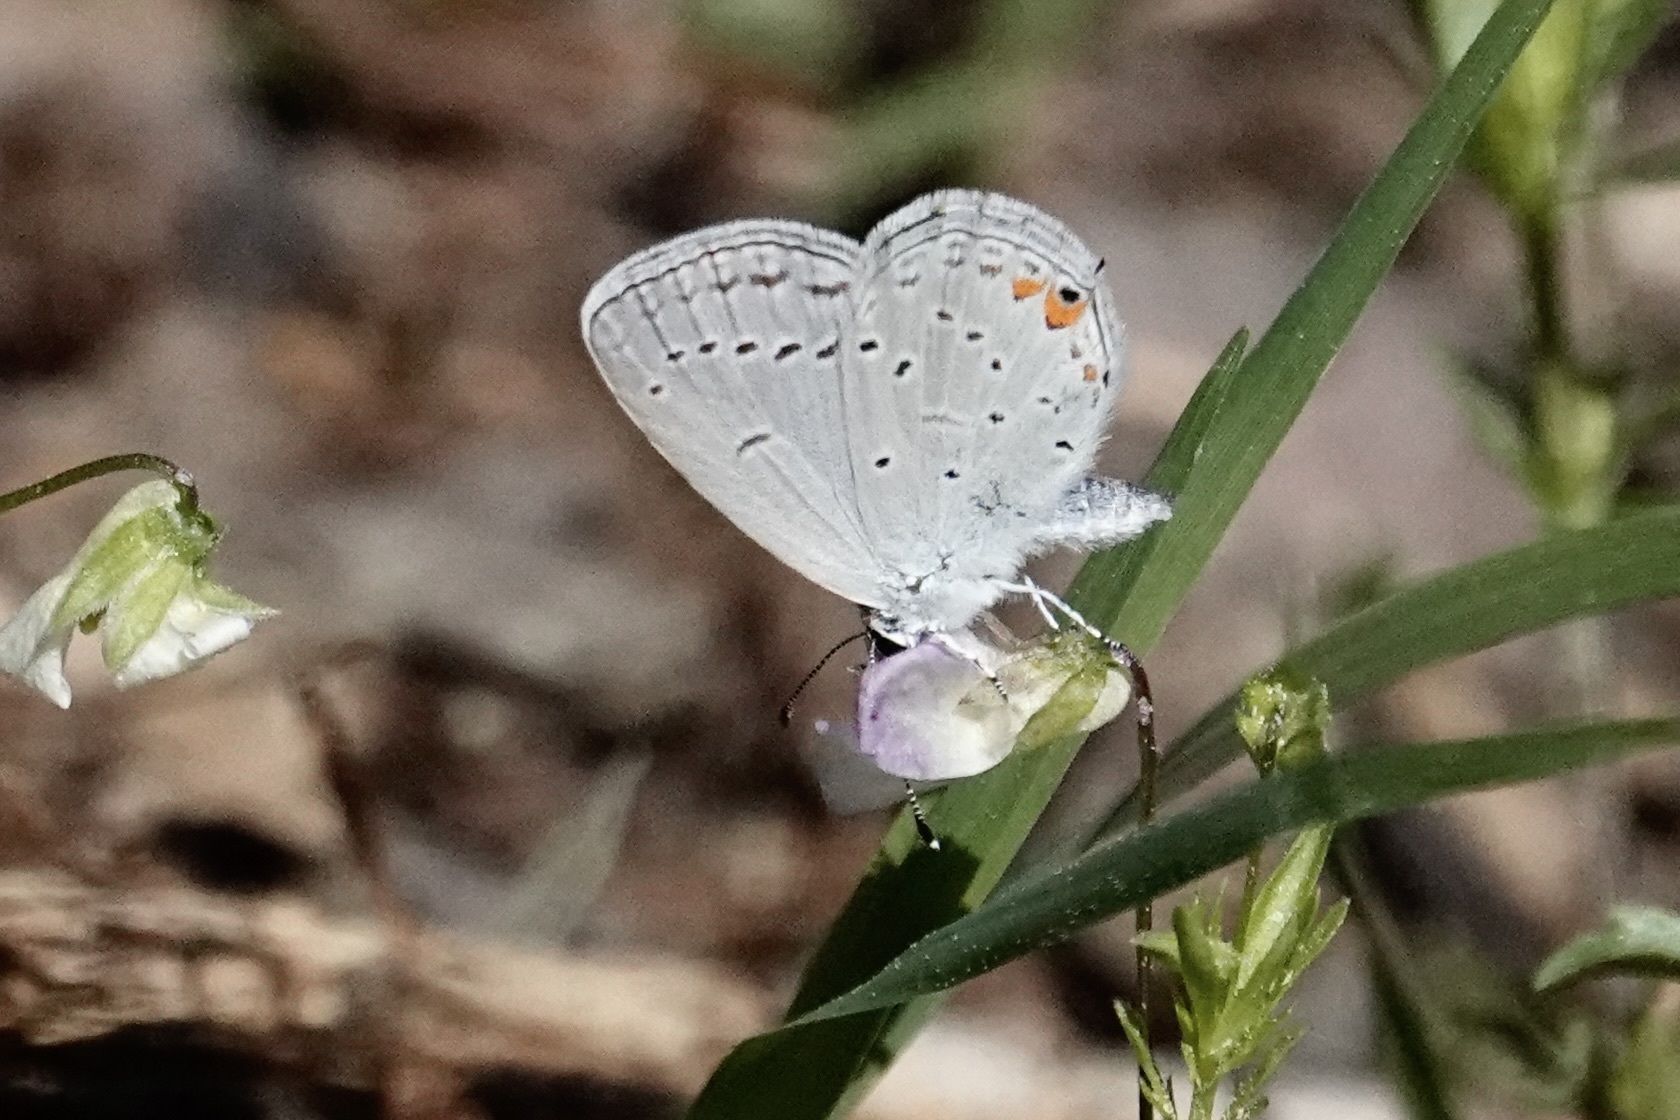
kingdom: Animalia
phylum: Arthropoda
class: Insecta
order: Lepidoptera
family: Lycaenidae
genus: Elkalyce
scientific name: Elkalyce comyntas
